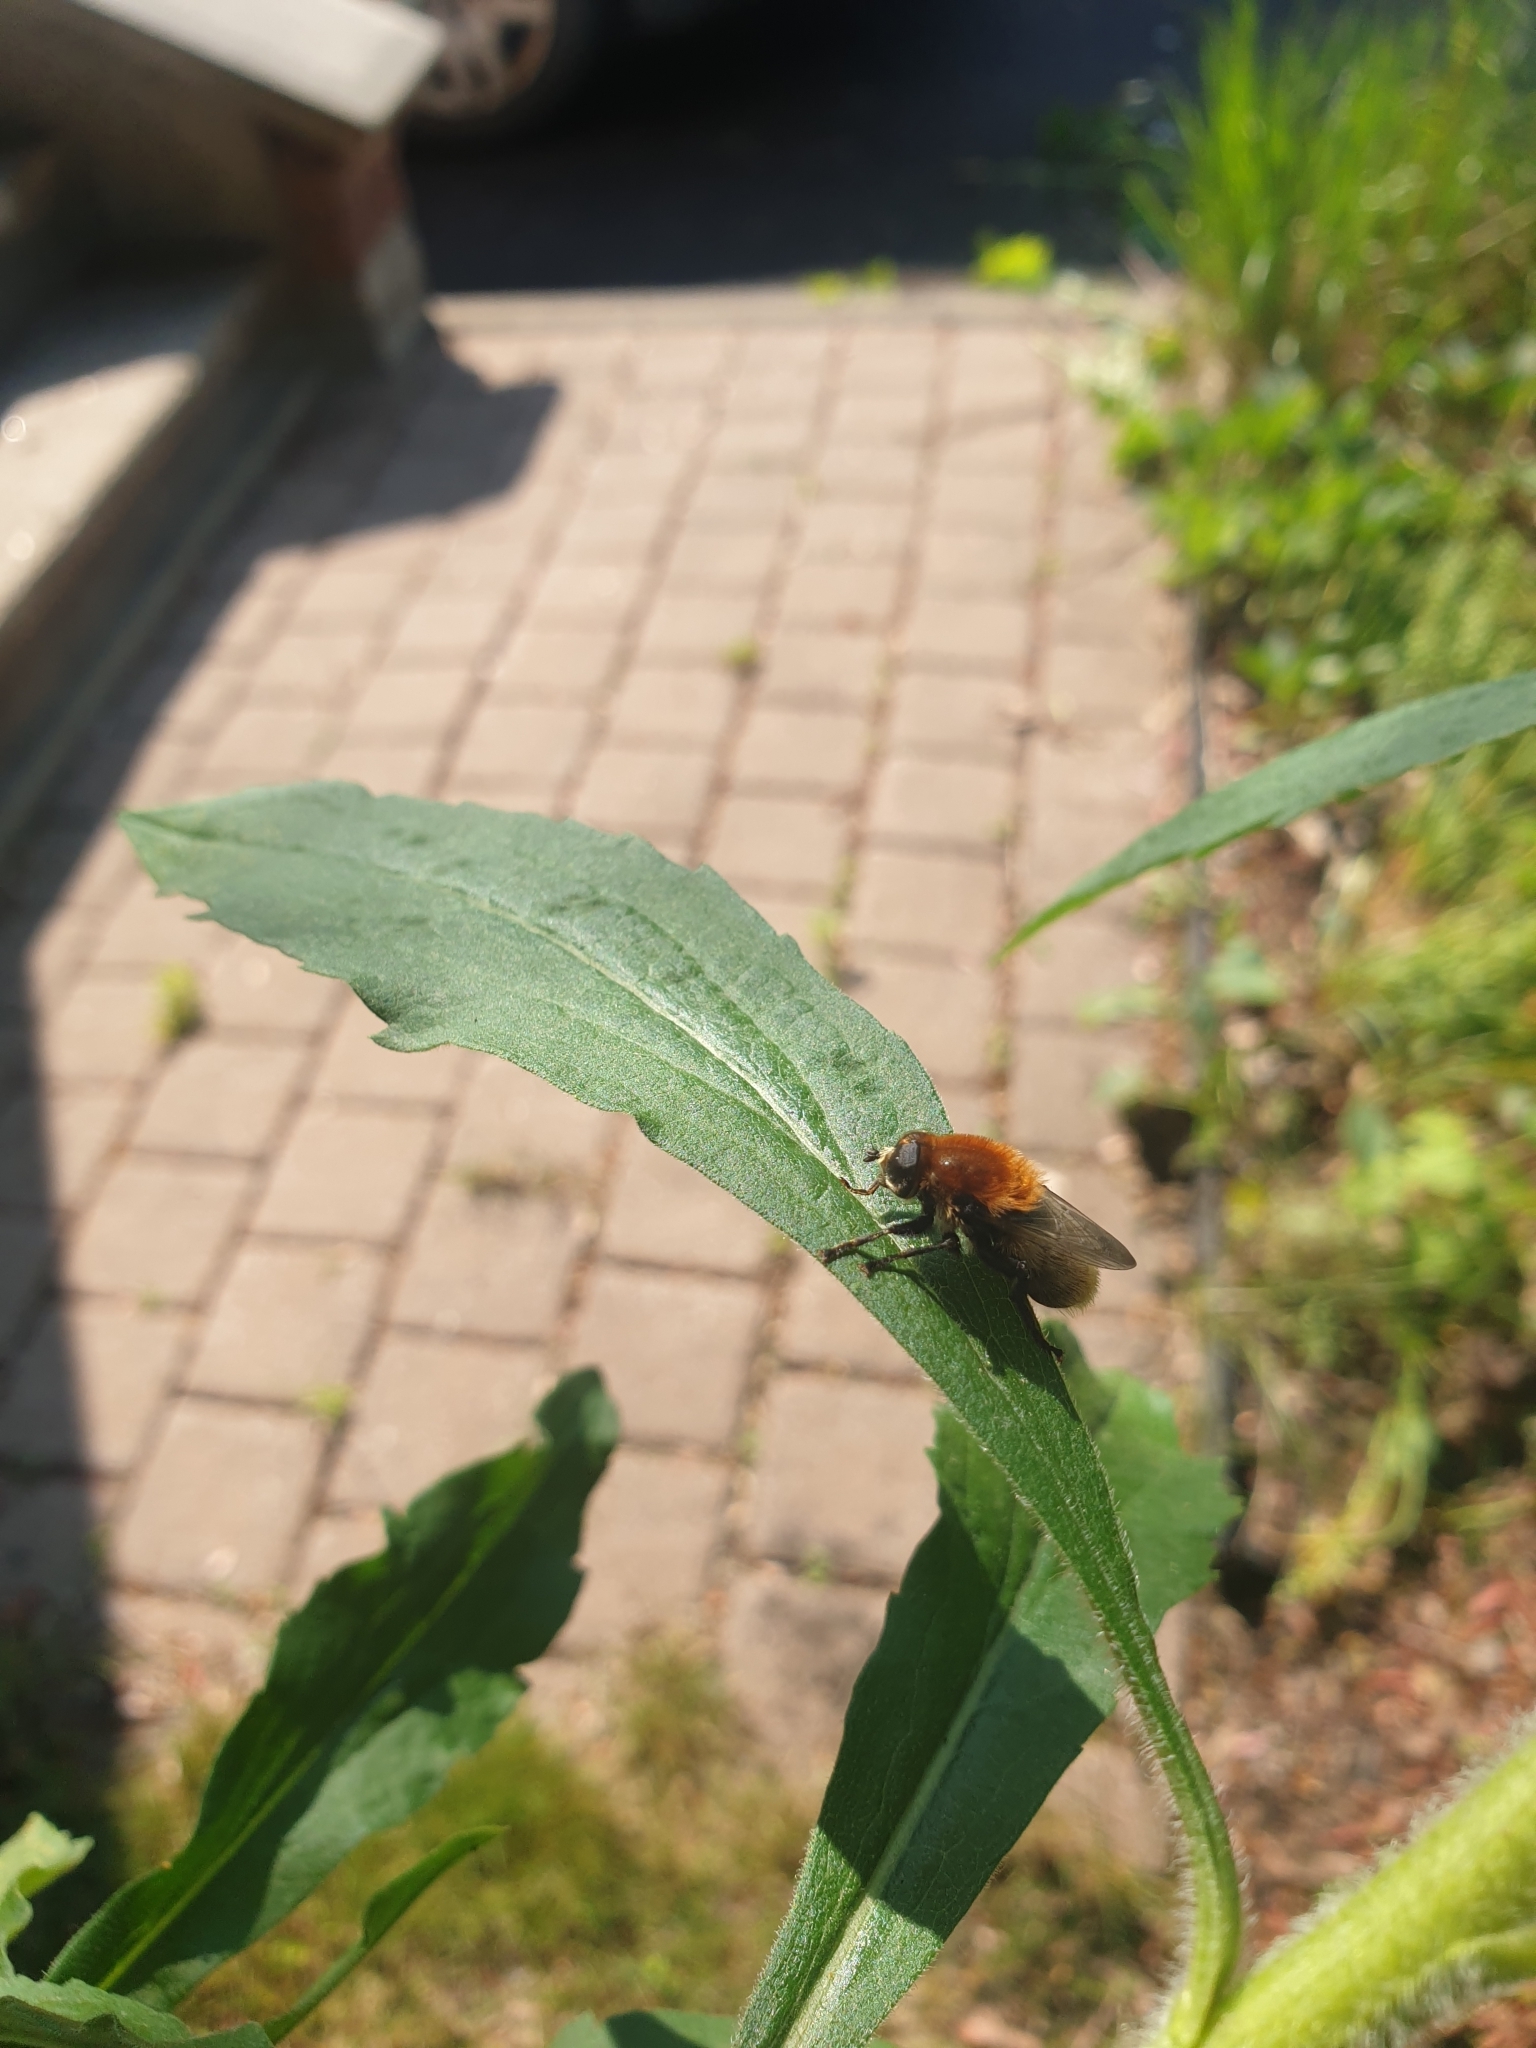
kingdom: Animalia
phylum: Arthropoda
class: Insecta
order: Diptera
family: Syrphidae
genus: Merodon
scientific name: Merodon equestris
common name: Greater bulb-fly
